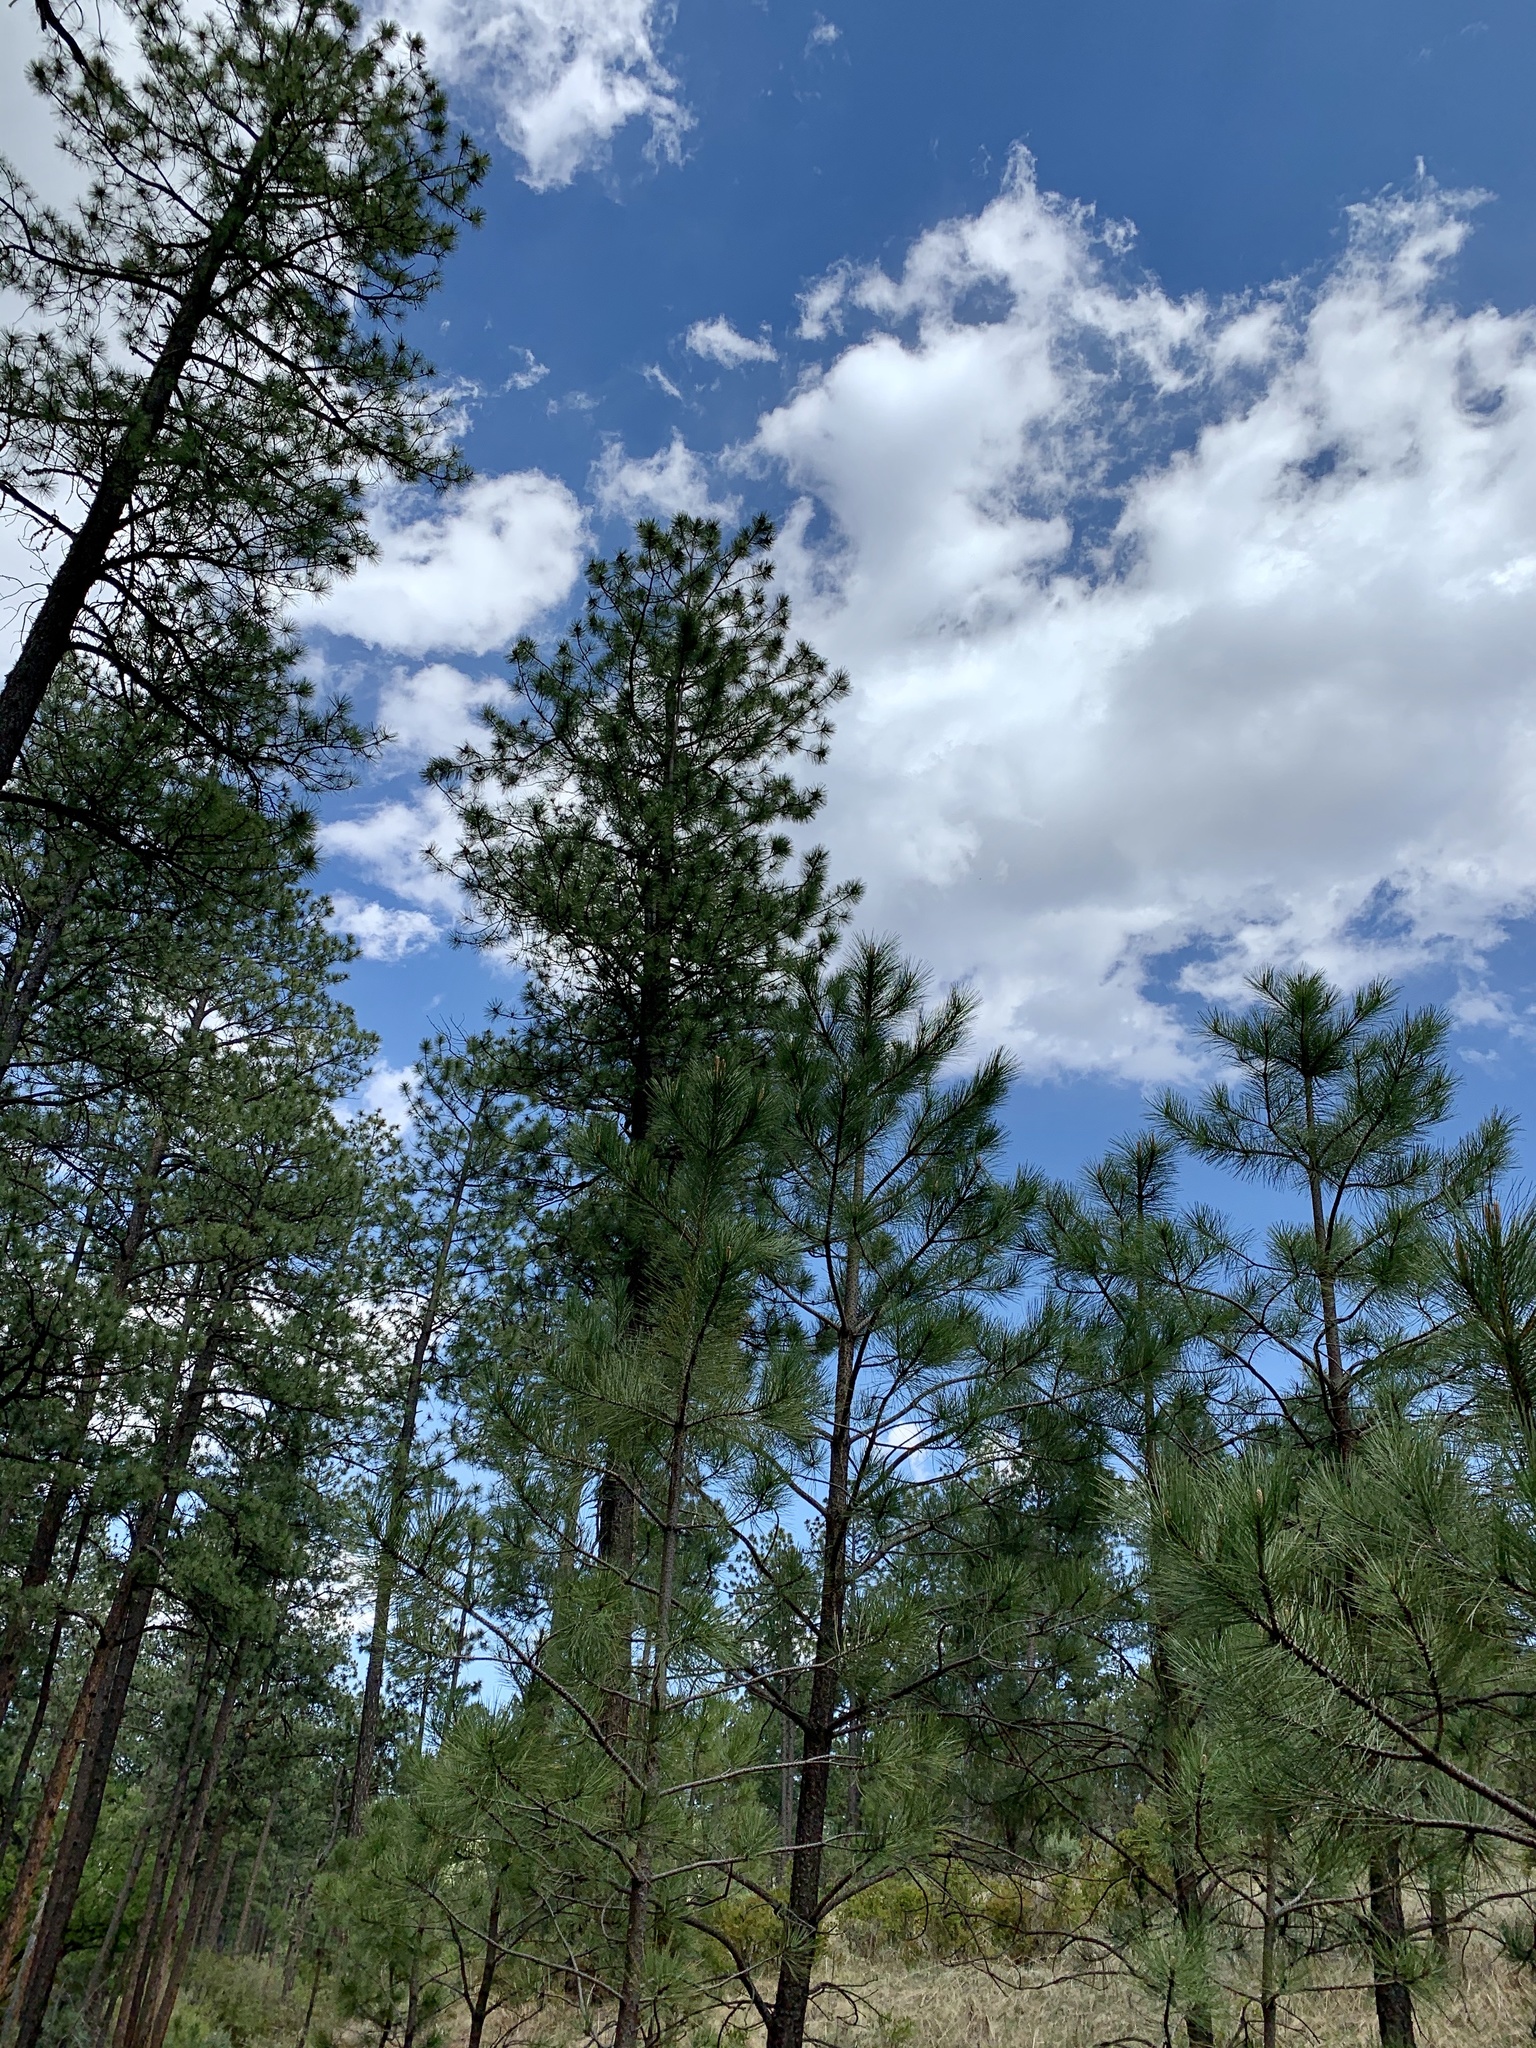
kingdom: Plantae
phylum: Tracheophyta
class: Pinopsida
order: Pinales
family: Pinaceae
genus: Pinus
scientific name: Pinus ponderosa
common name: Western yellow-pine
